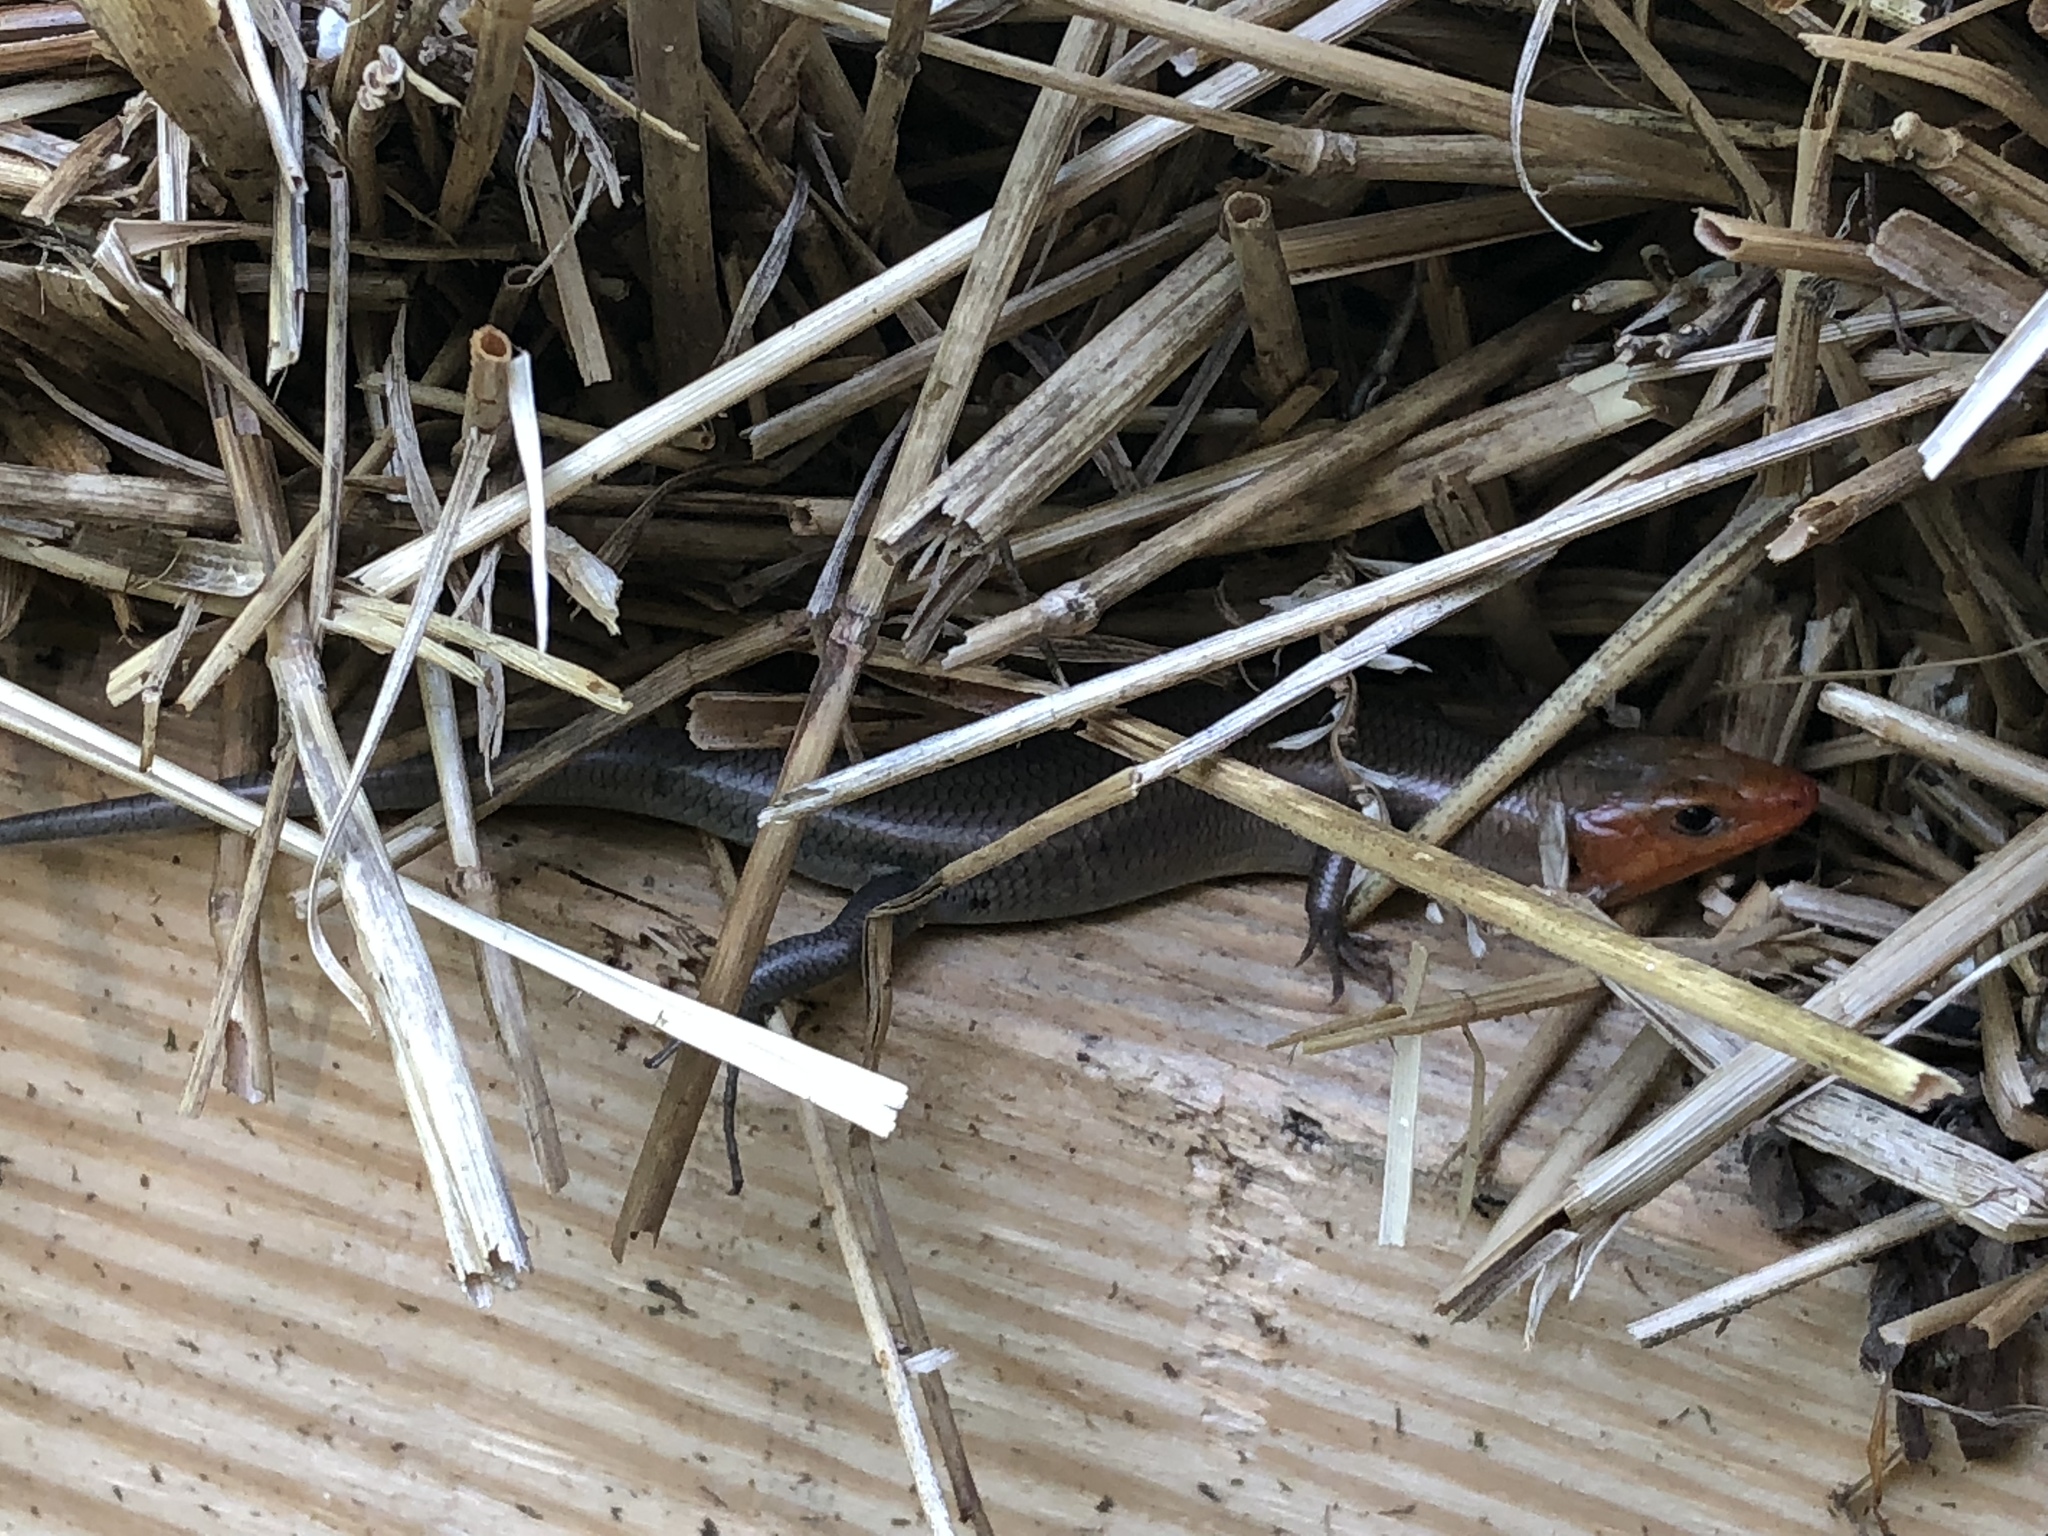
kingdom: Animalia
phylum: Chordata
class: Squamata
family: Scincidae
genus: Plestiodon
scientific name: Plestiodon
